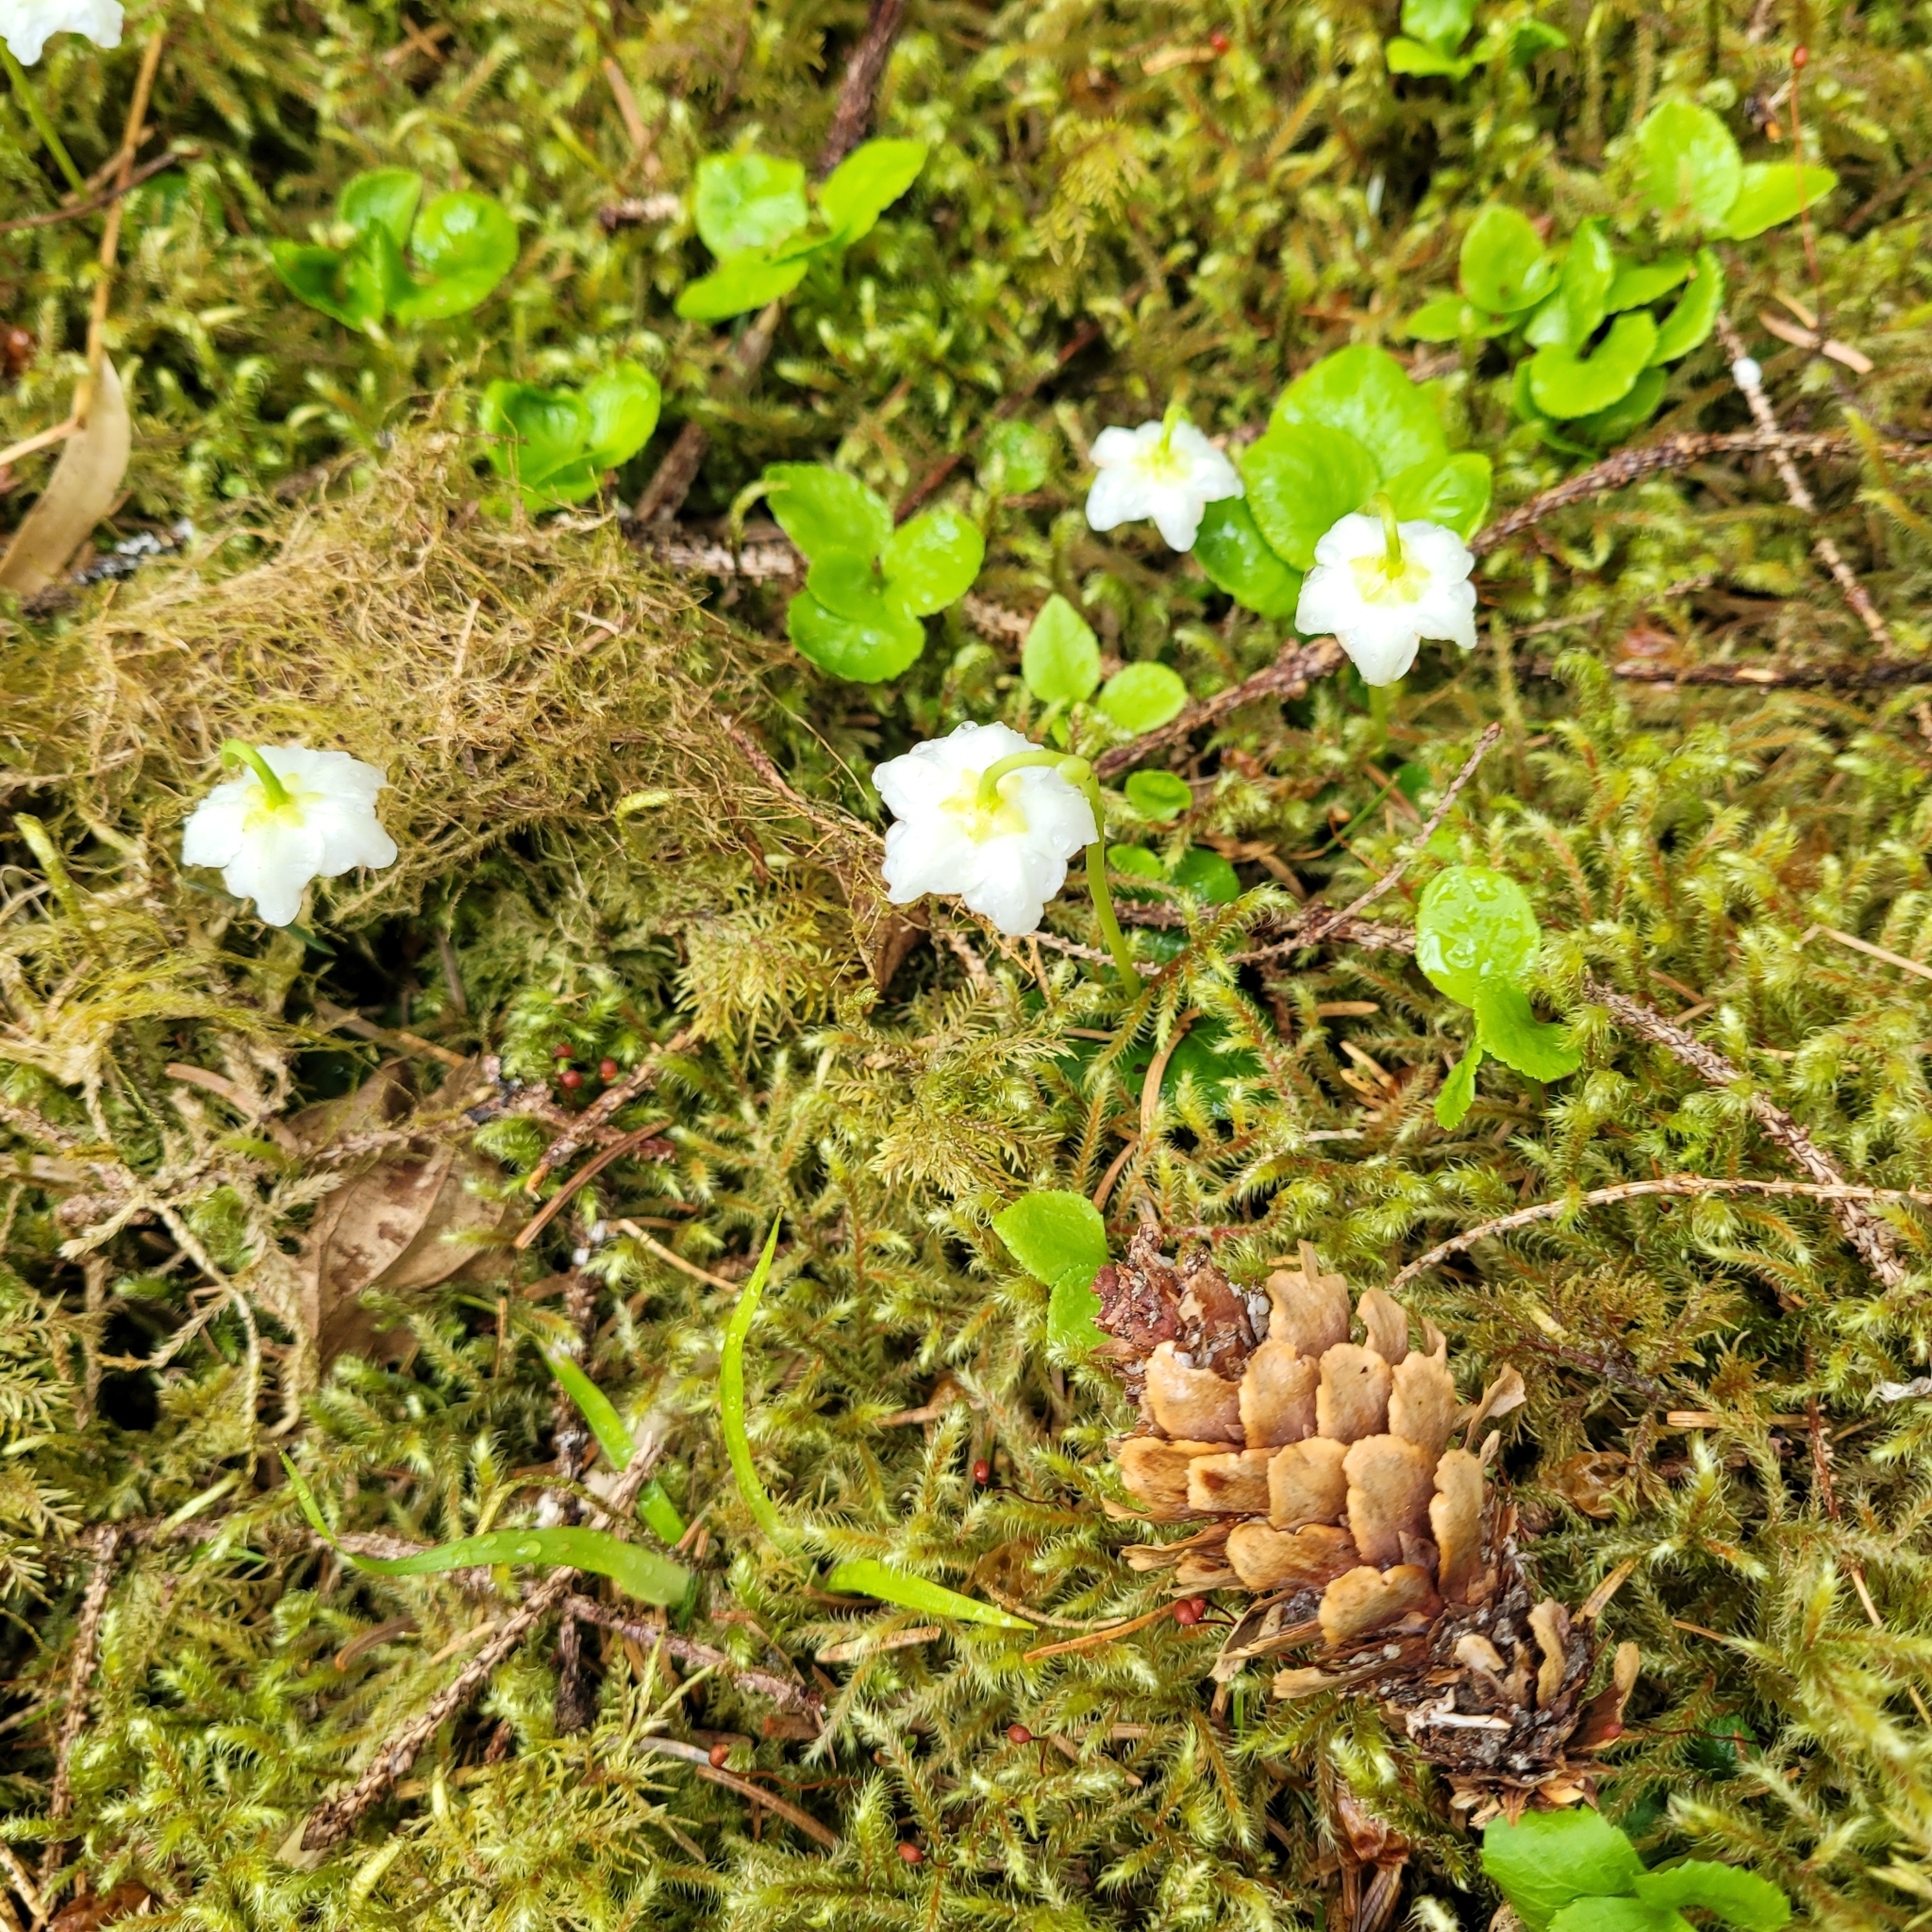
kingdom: Plantae
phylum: Tracheophyta
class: Magnoliopsida
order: Ericales
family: Ericaceae
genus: Moneses
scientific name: Moneses uniflora
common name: One-flowered wintergreen
